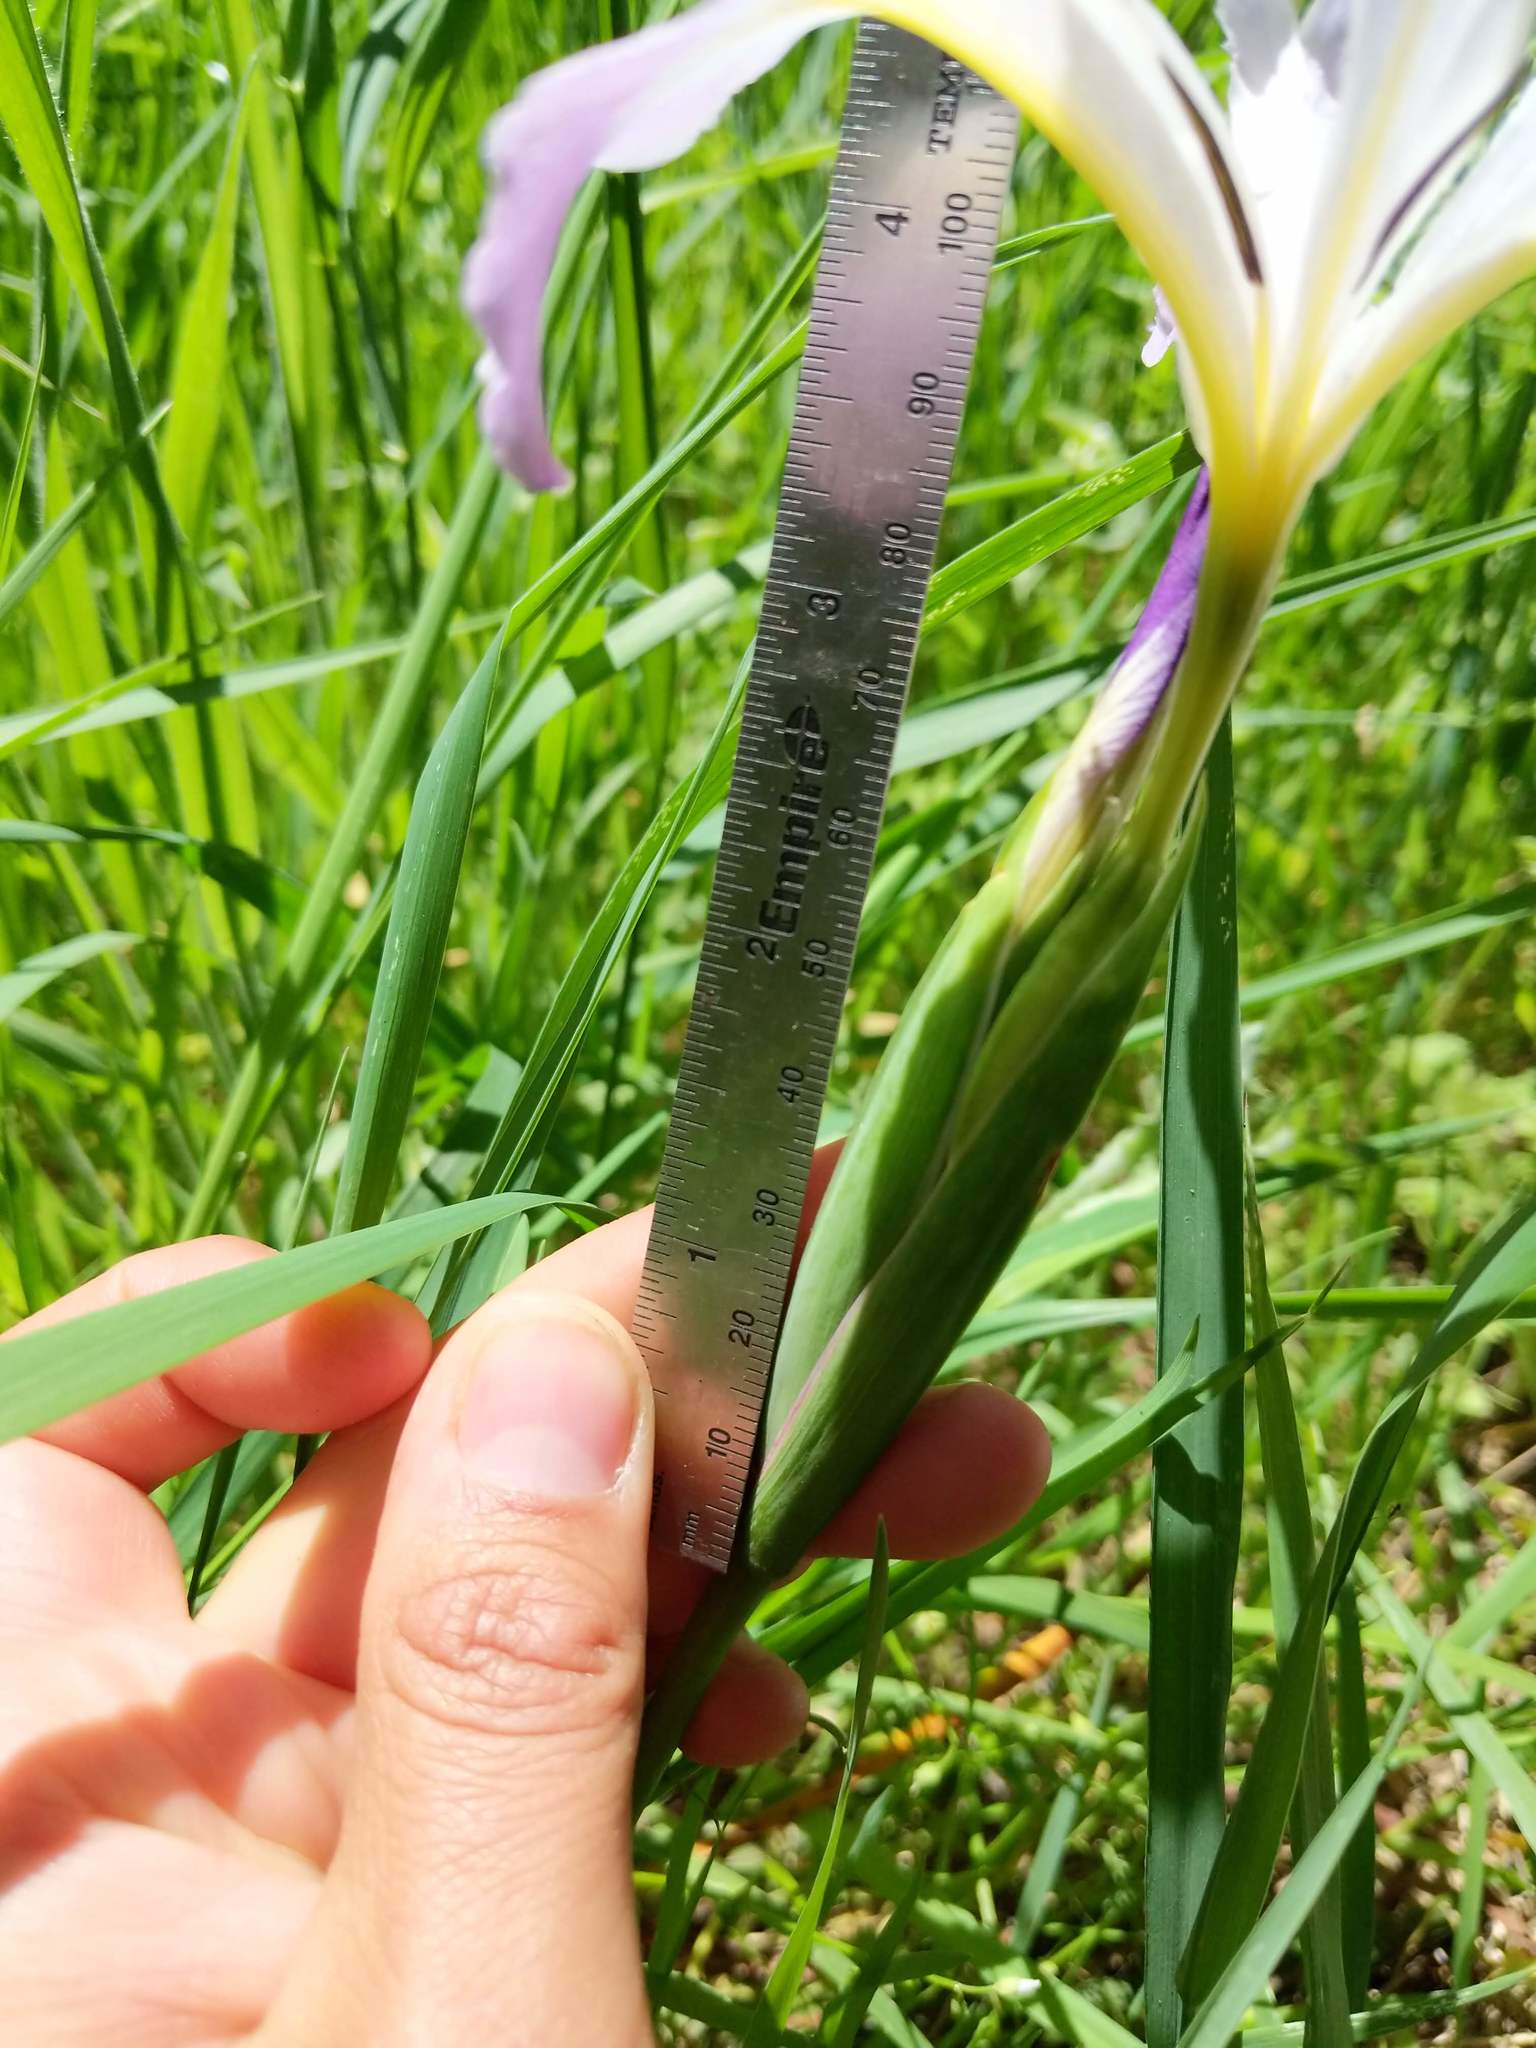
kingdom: Plantae
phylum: Tracheophyta
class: Liliopsida
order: Asparagales
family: Iridaceae
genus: Iris
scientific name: Iris douglasiana
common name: Marin iris
